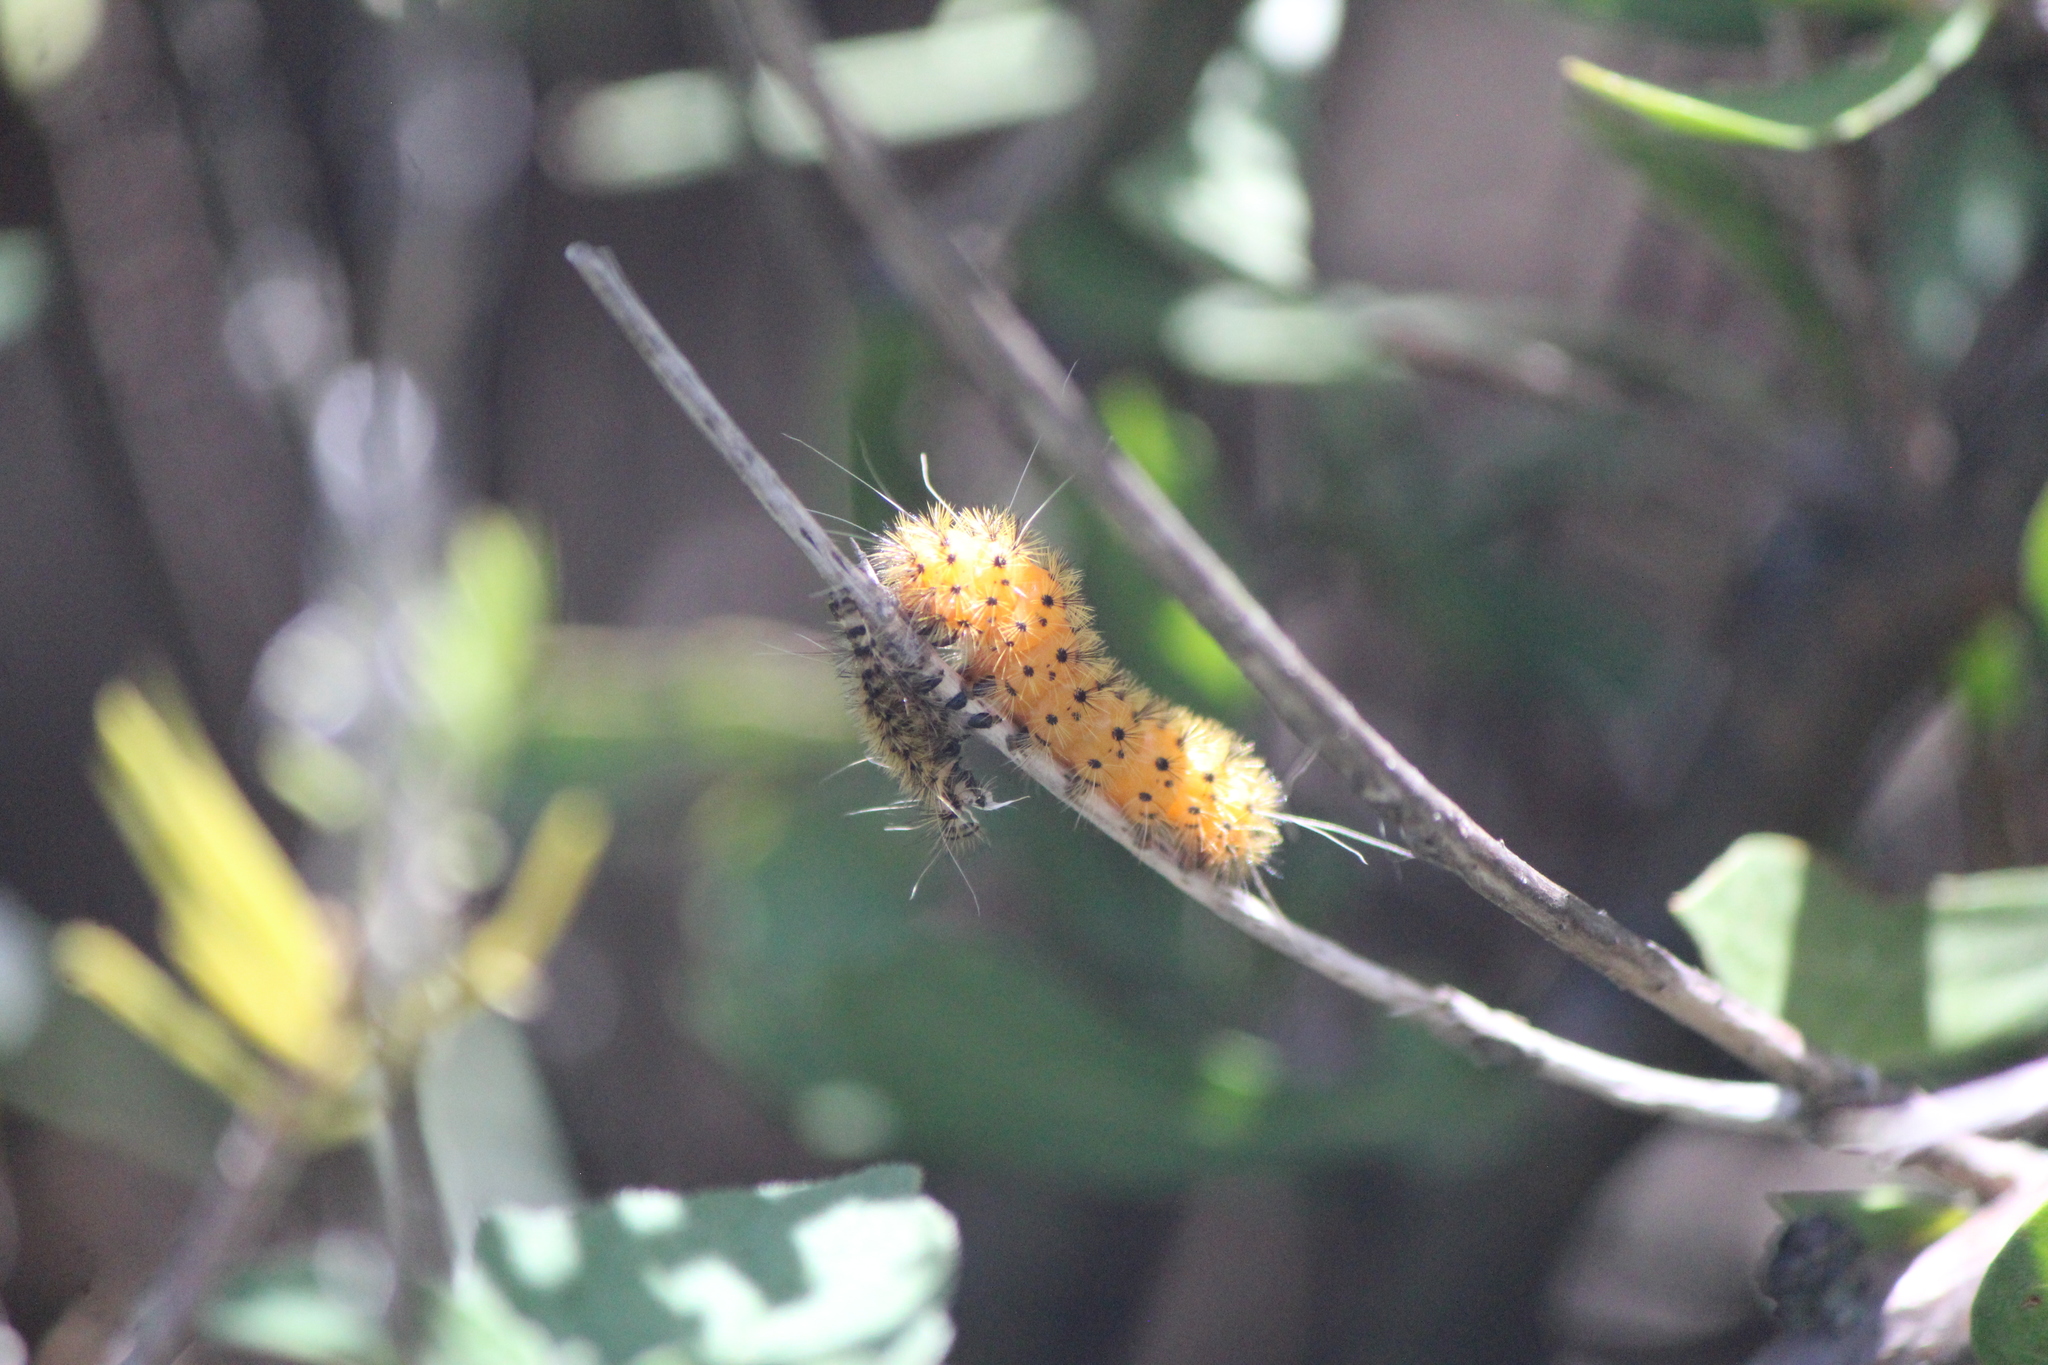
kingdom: Animalia
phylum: Arthropoda
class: Insecta
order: Lepidoptera
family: Erebidae
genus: Lerina
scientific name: Lerina incarnata
